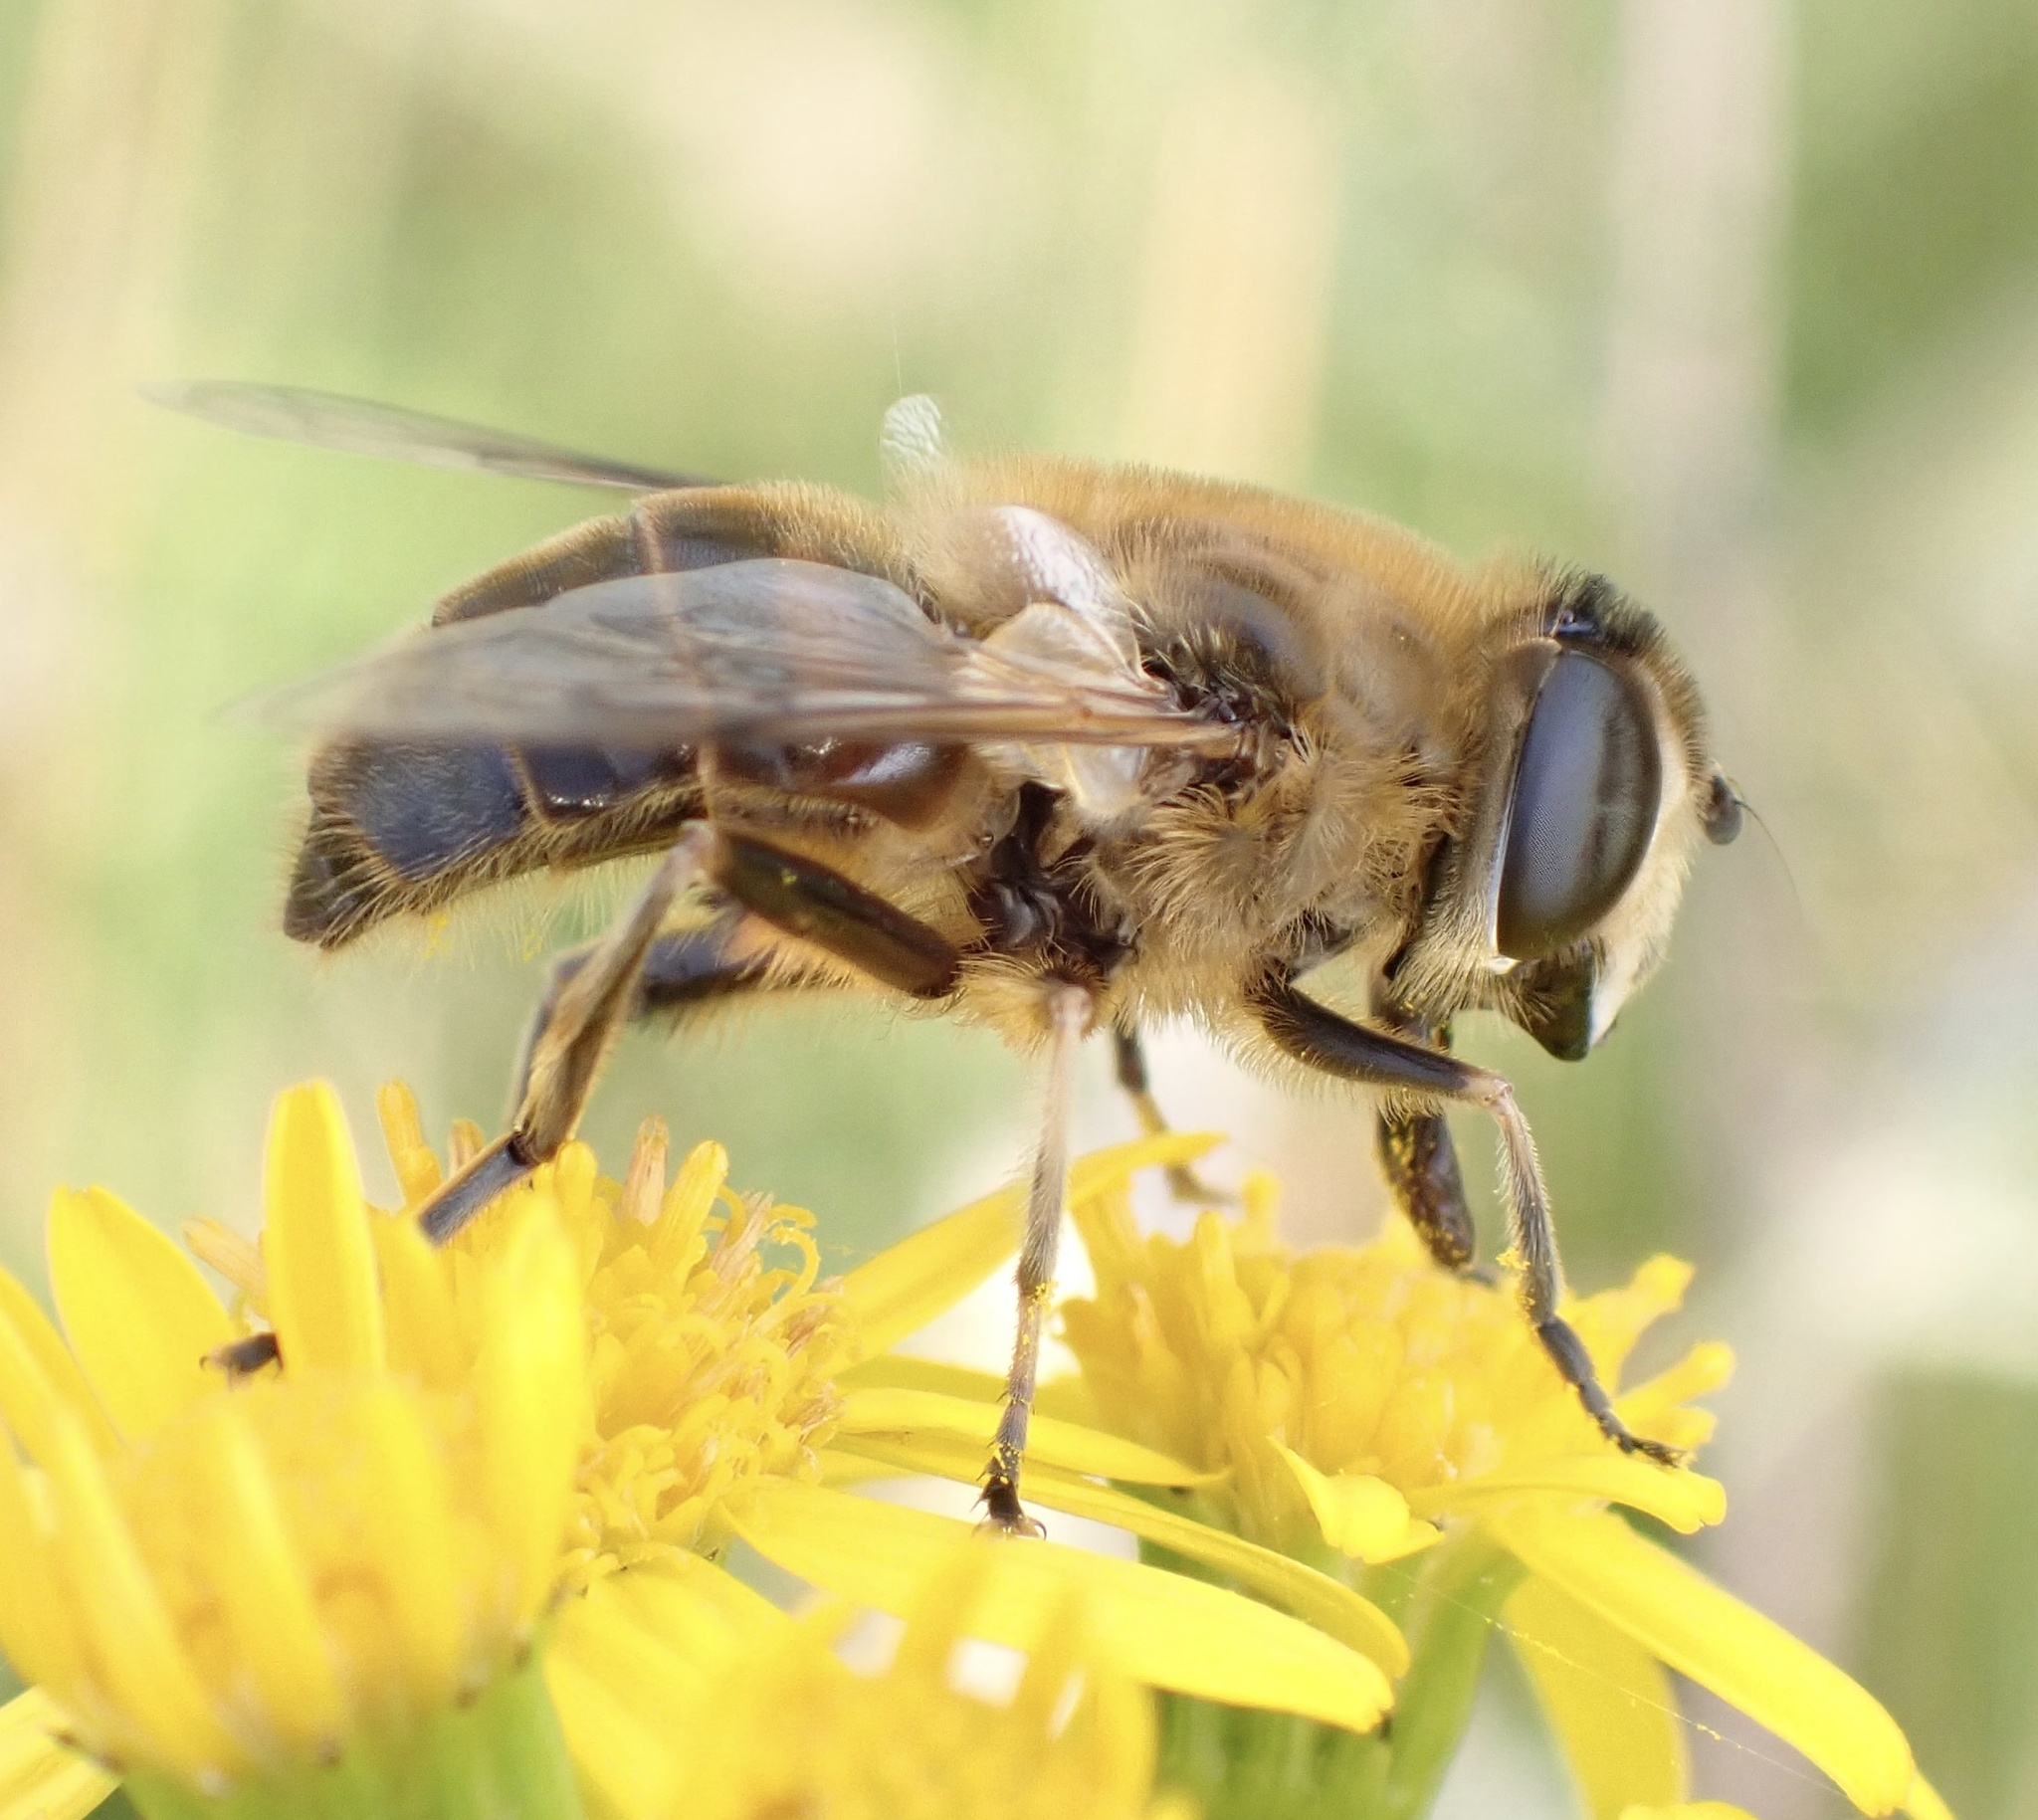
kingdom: Animalia
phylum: Arthropoda
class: Insecta
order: Diptera
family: Syrphidae
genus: Eristalis
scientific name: Eristalis tenax
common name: Drone fly
